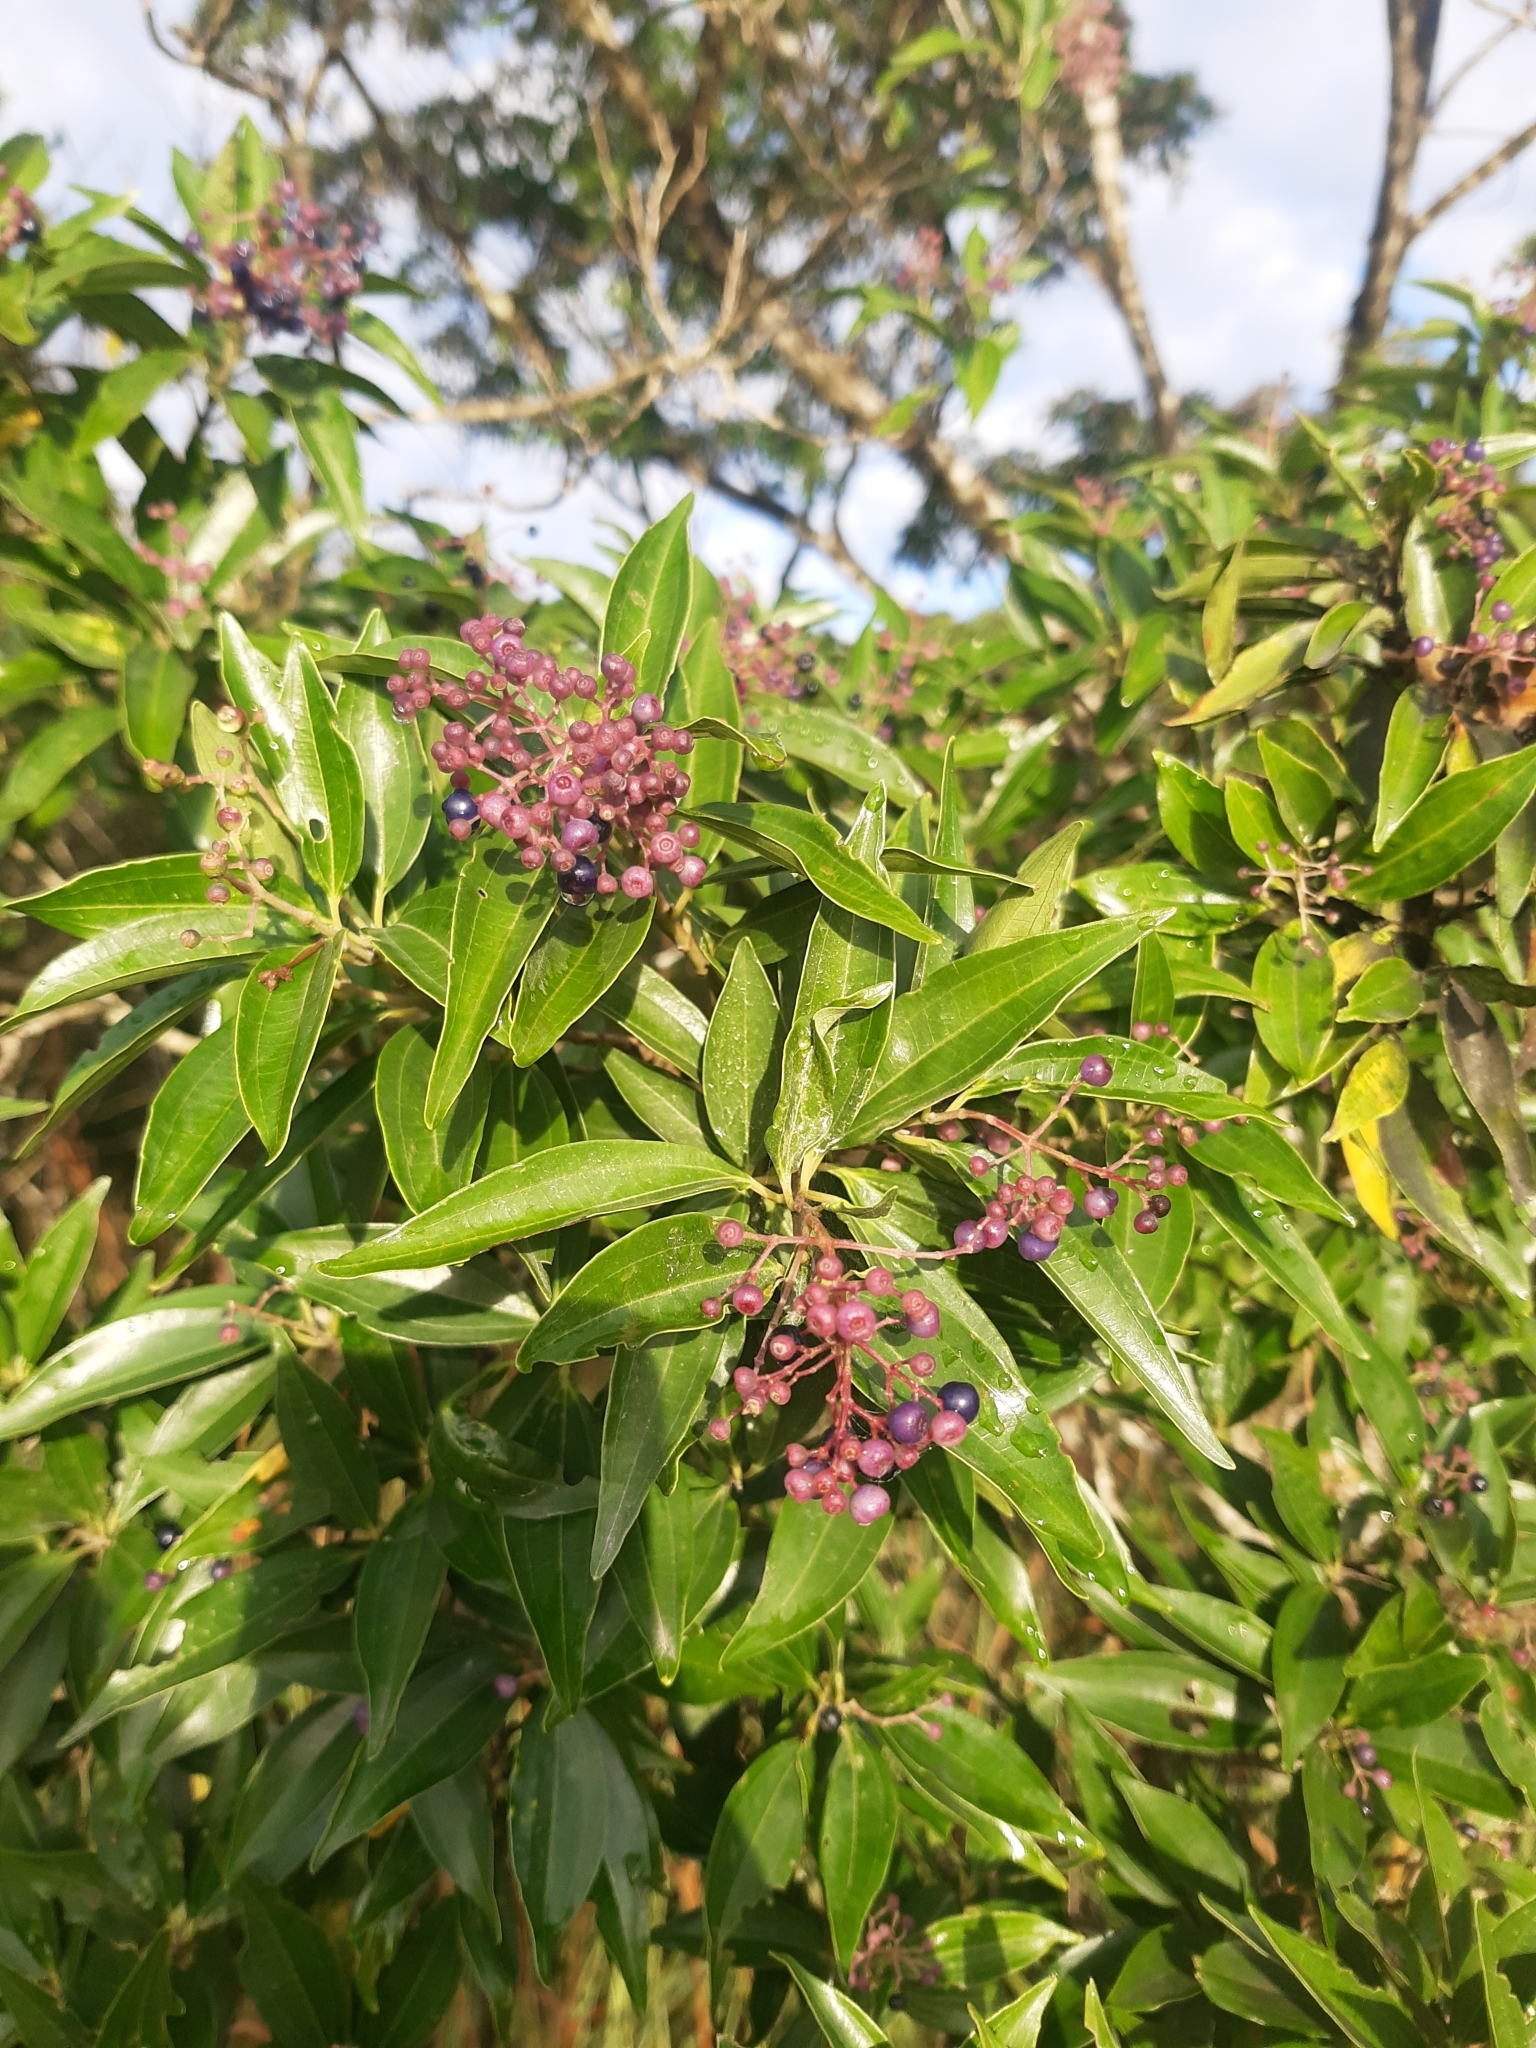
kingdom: Plantae
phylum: Tracheophyta
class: Magnoliopsida
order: Myrtales
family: Melastomataceae
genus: Miconia
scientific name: Miconia ligustroides
